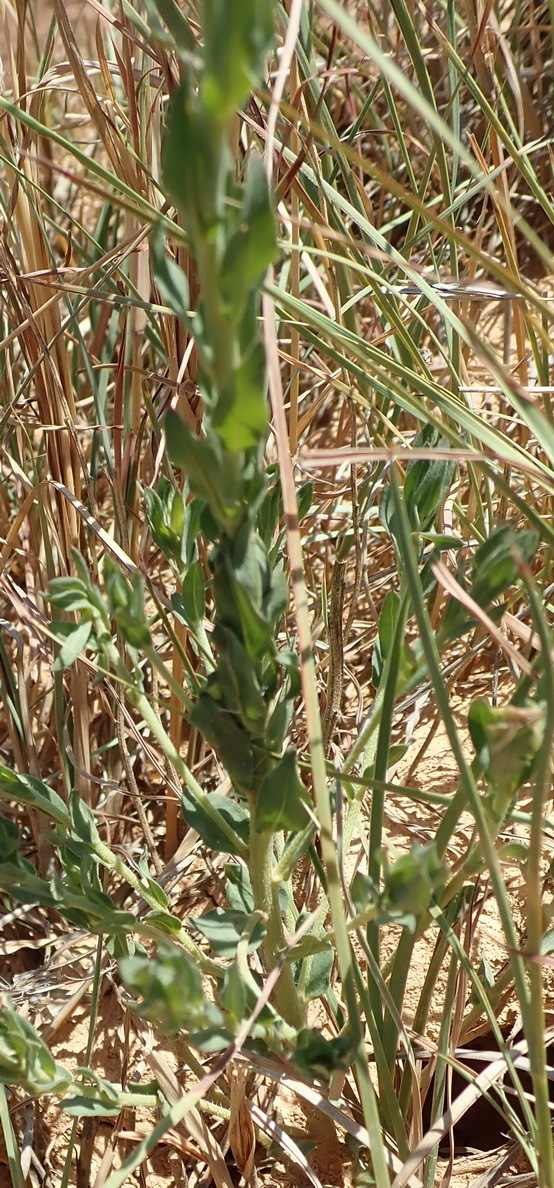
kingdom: Plantae
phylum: Tracheophyta
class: Magnoliopsida
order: Asterales
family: Asteraceae
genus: Pseudopegolettia
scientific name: Pseudopegolettia tenella
